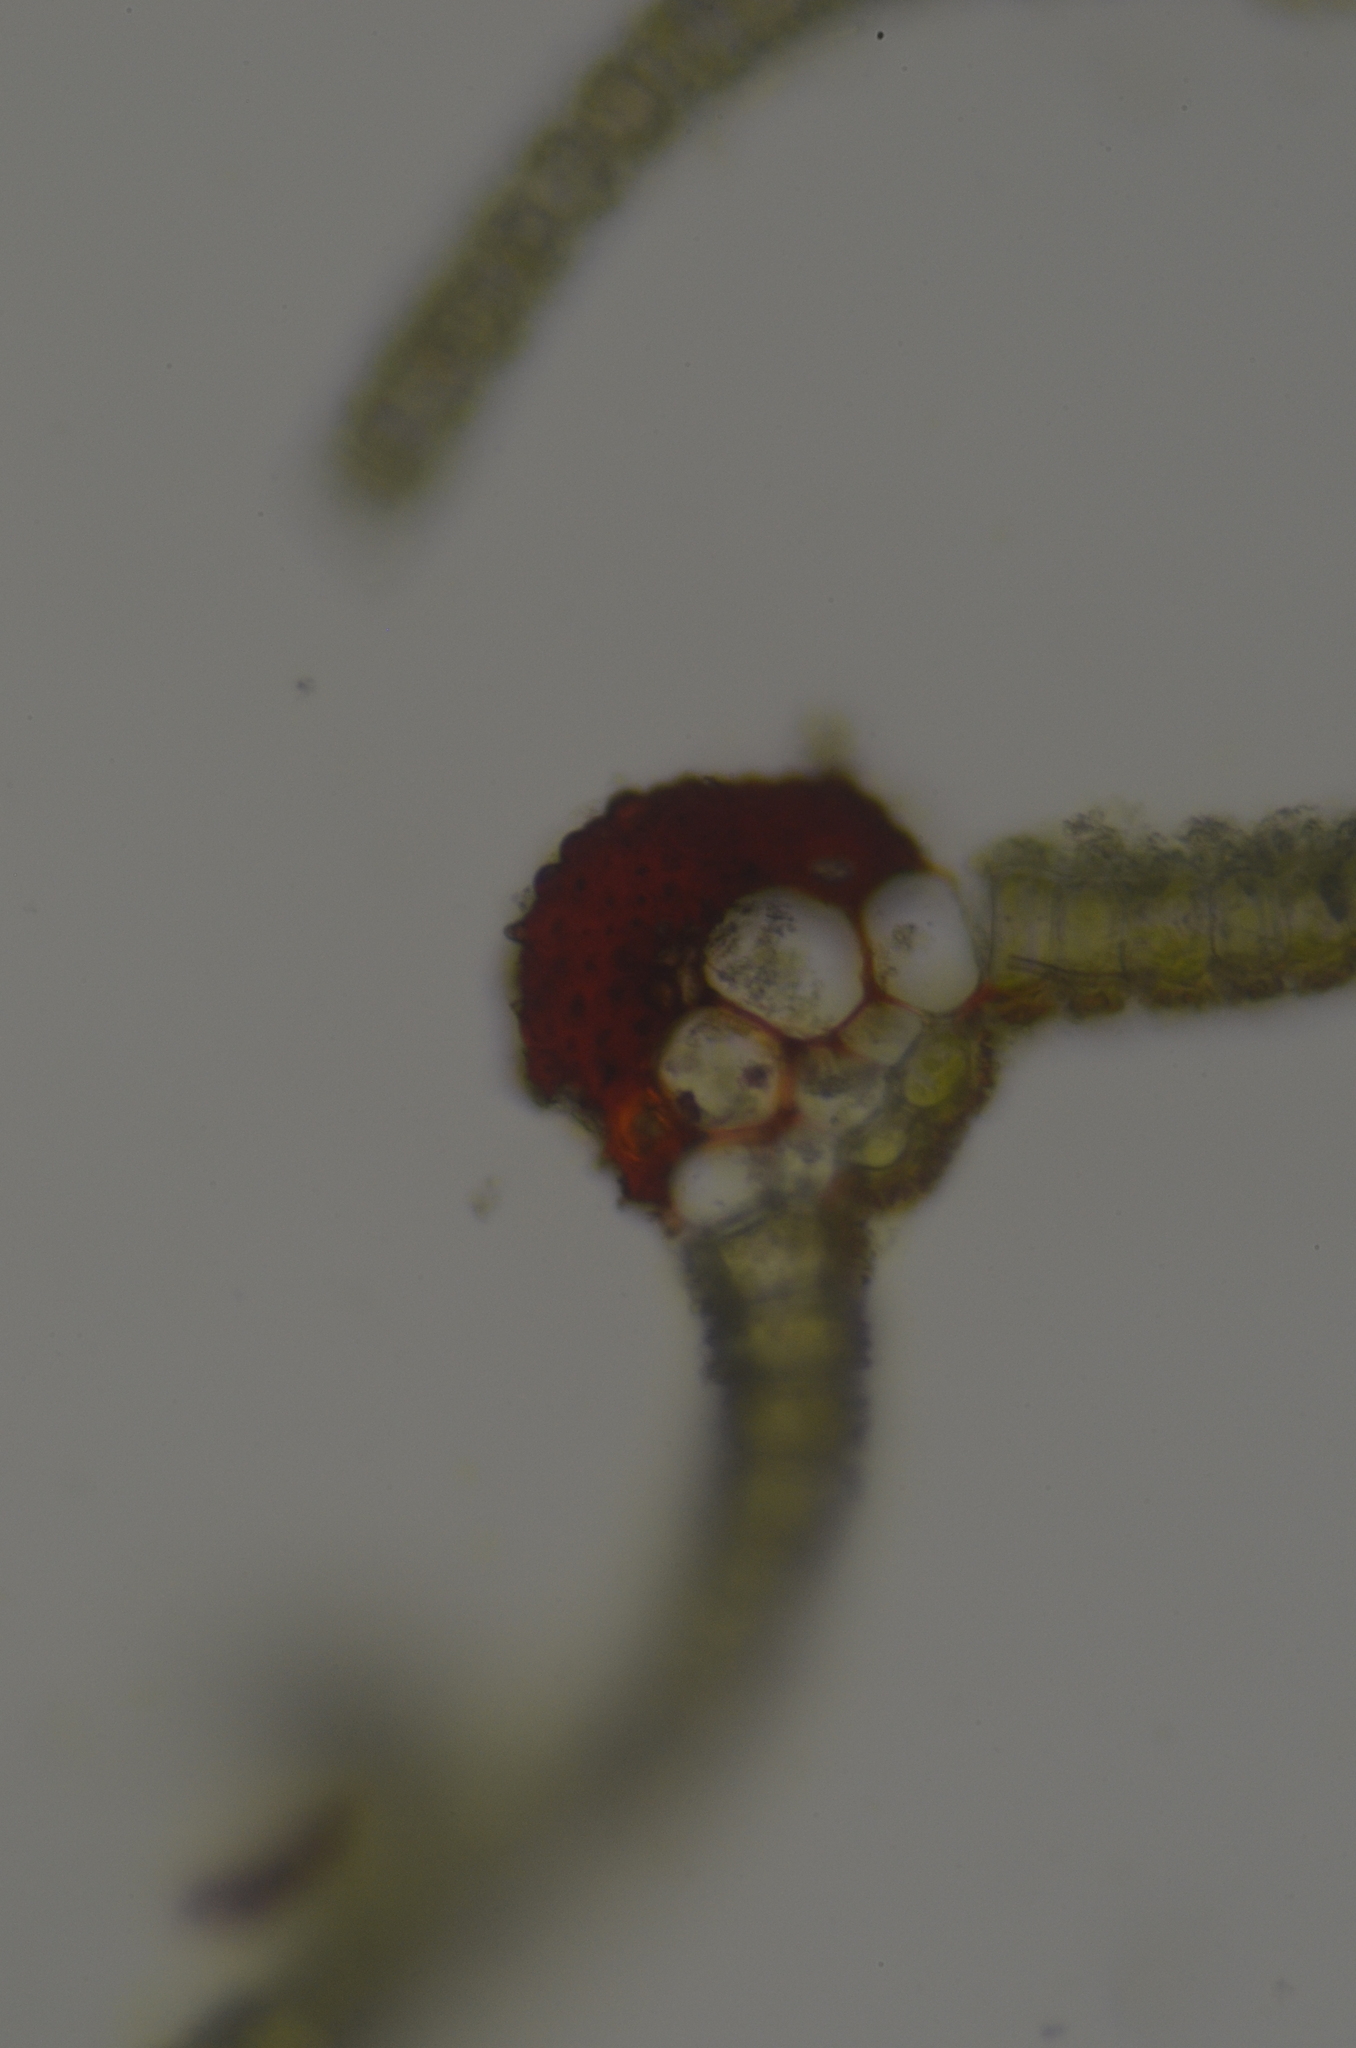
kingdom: Plantae
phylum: Bryophyta
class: Bryopsida
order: Pottiales
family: Pottiaceae
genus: Syntrichia
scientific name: Syntrichia princeps
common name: Brown screw-moss
